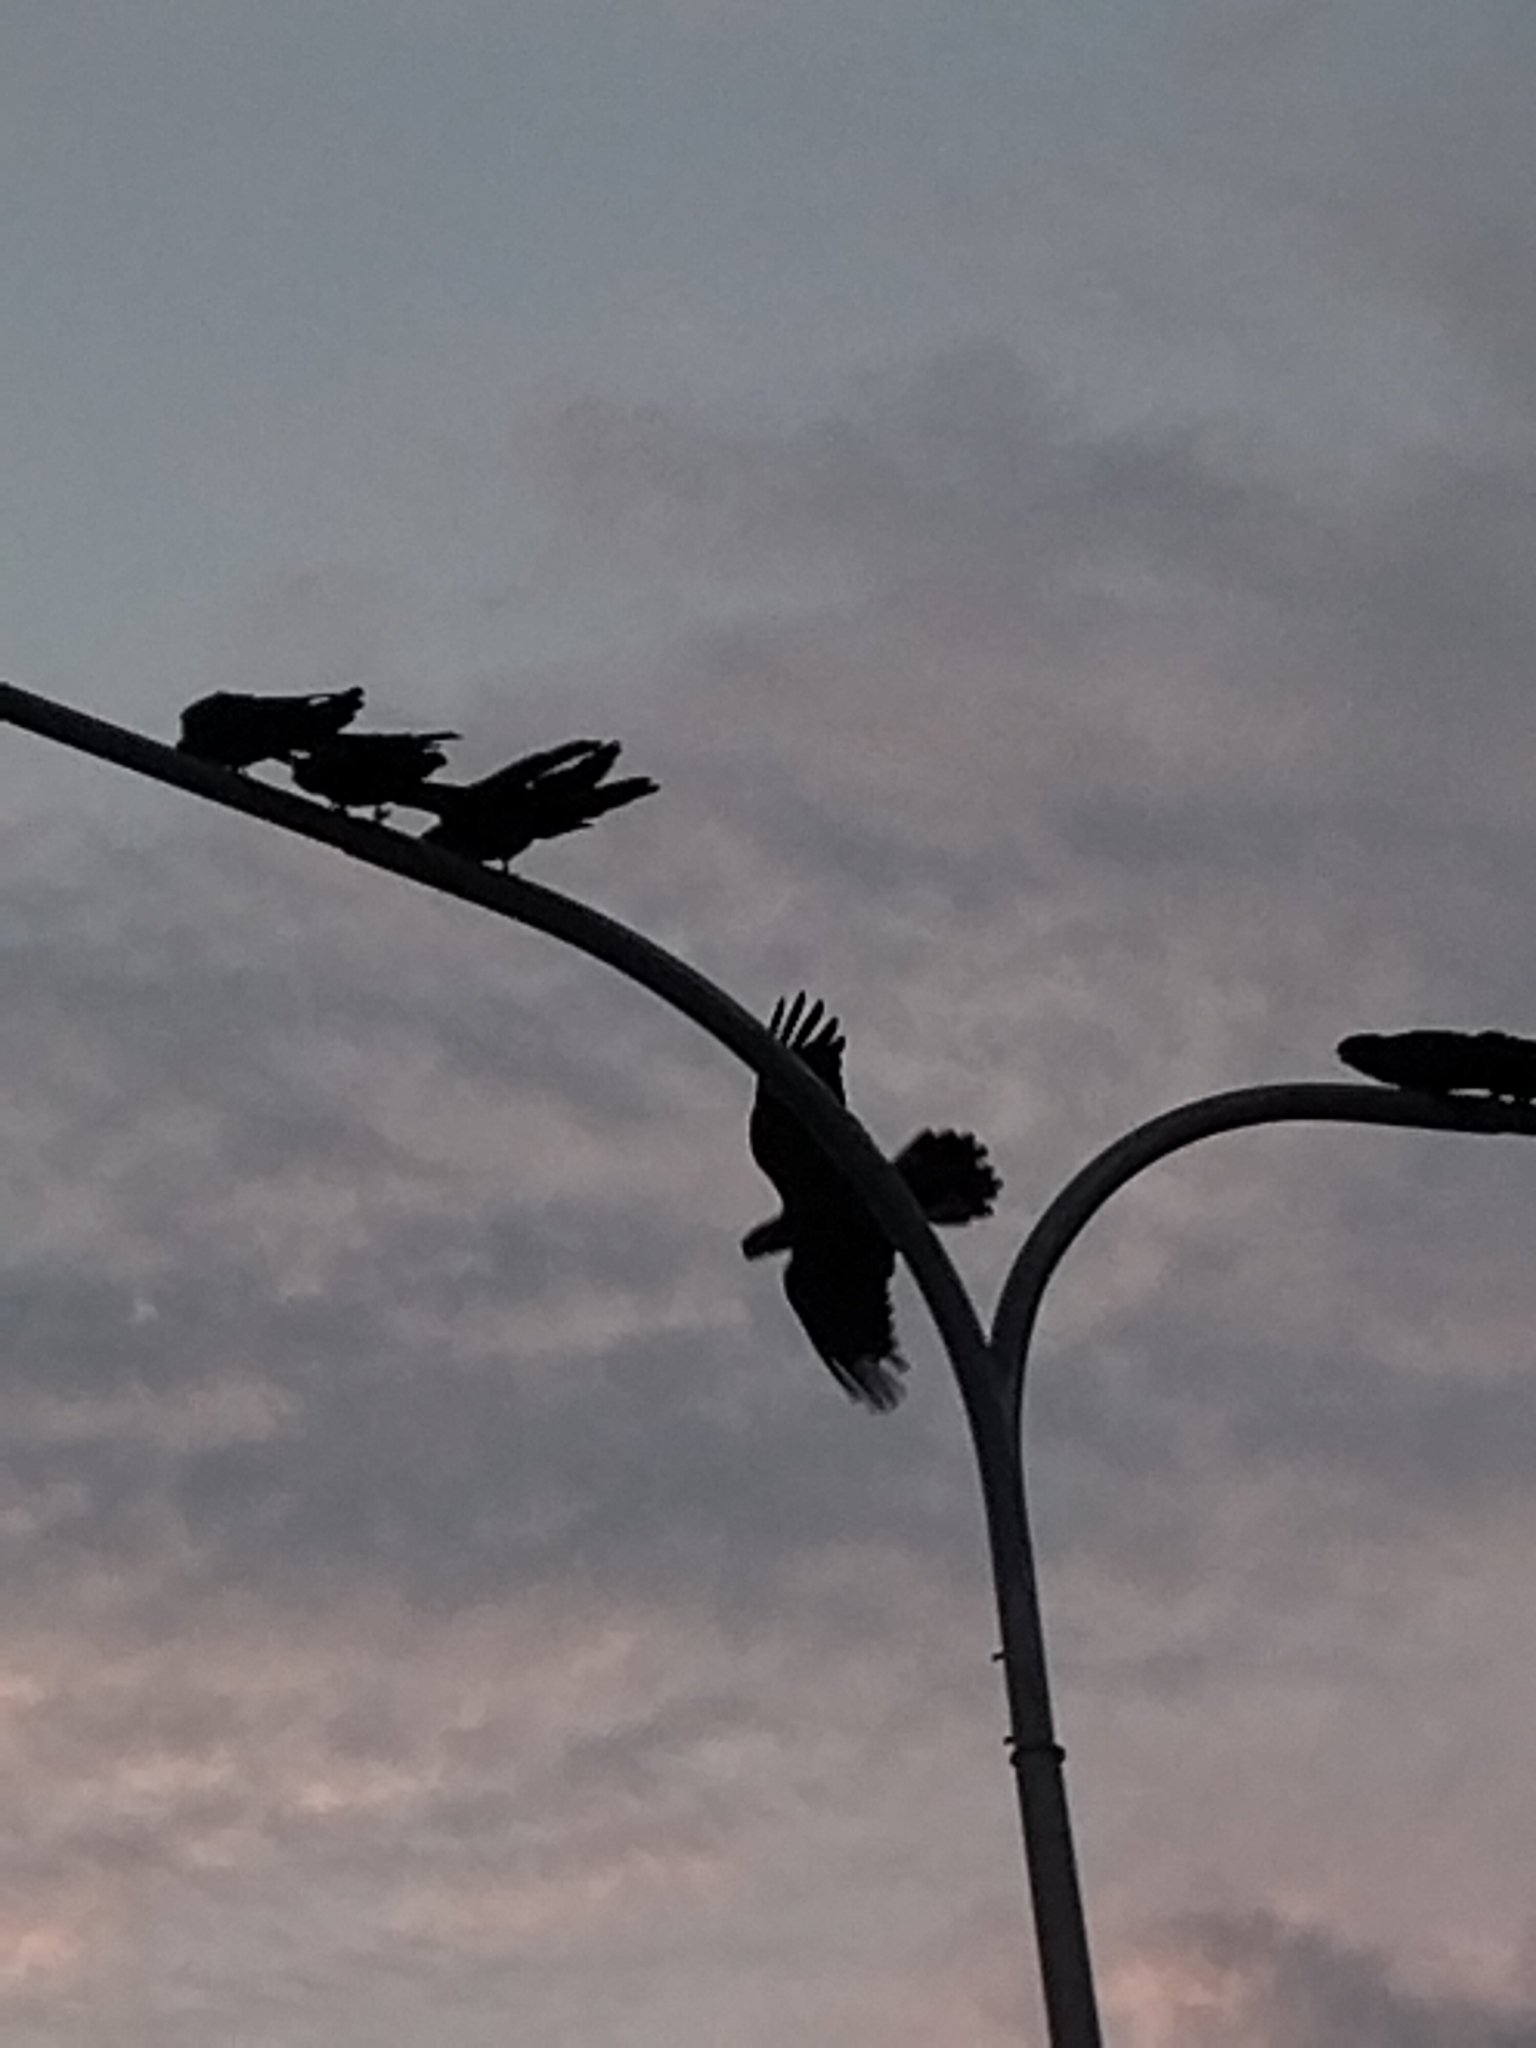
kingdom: Animalia
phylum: Chordata
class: Aves
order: Psittaciformes
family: Psittacidae
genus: Calyptorhynchus
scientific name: Calyptorhynchus banksii
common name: Red-tailed black cockatoo
